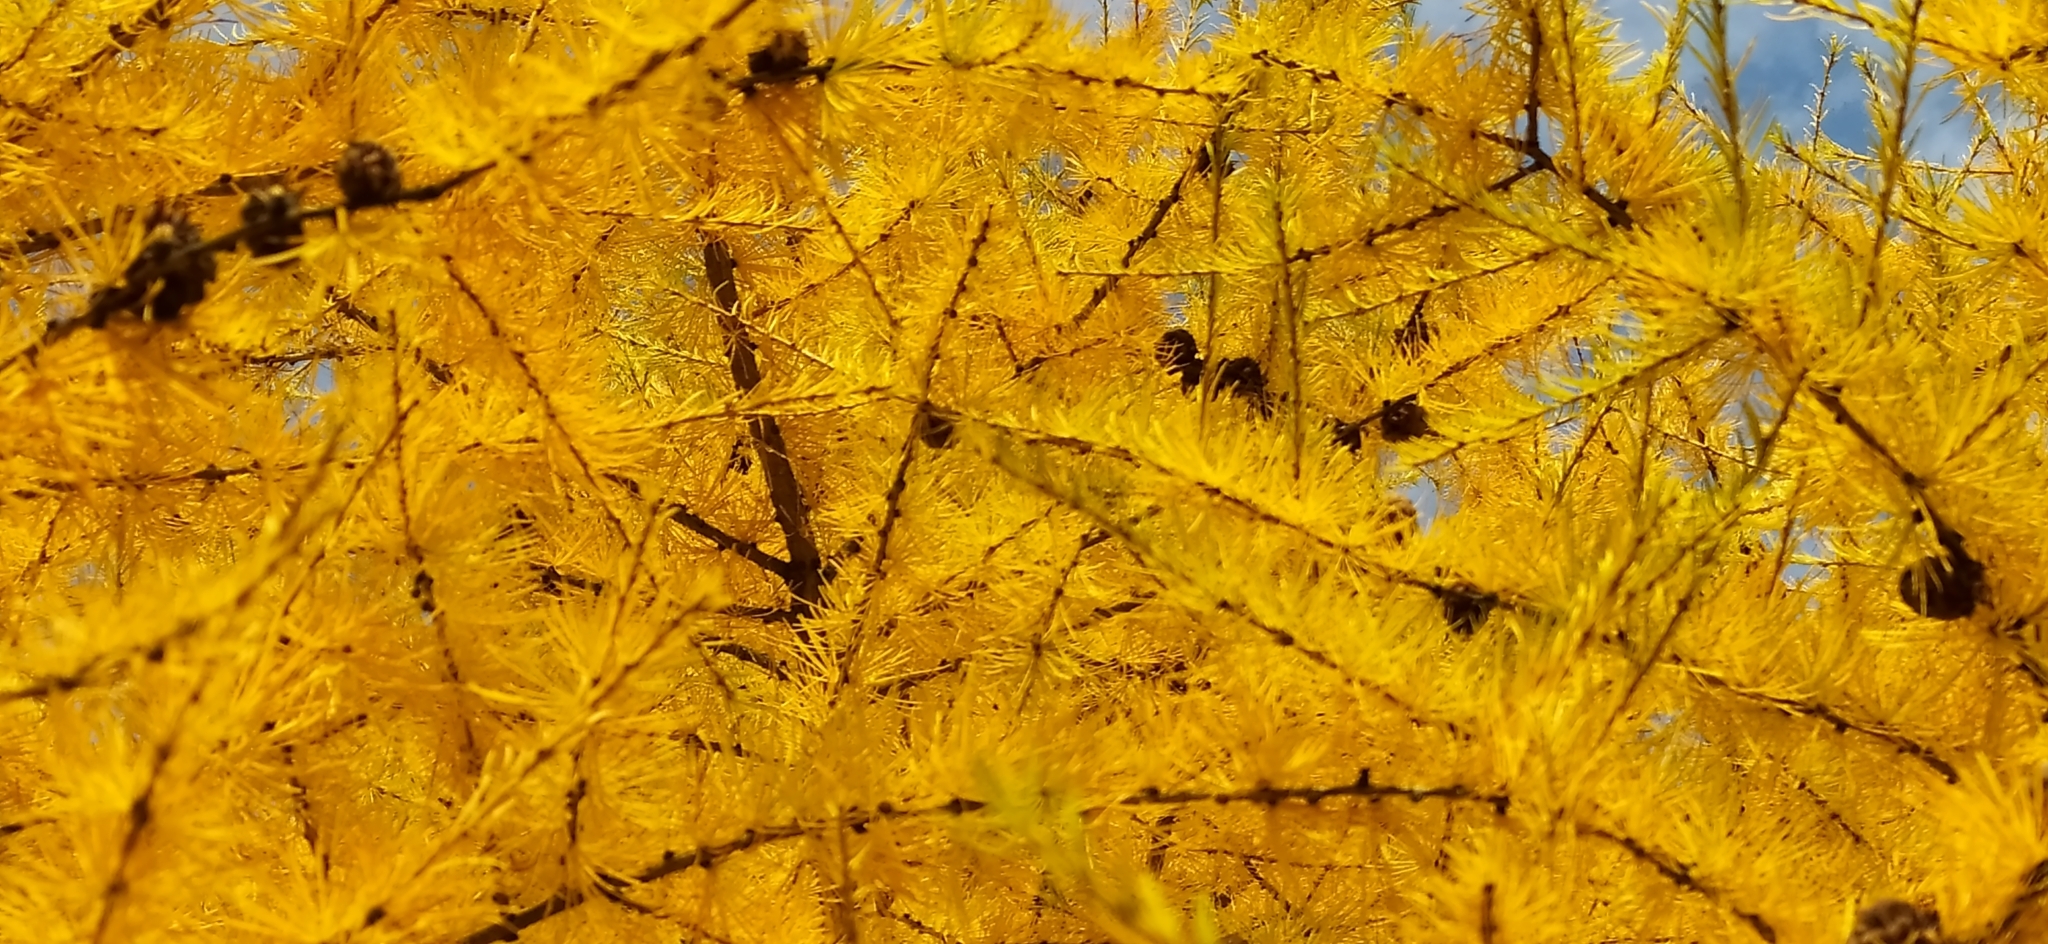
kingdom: Plantae
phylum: Tracheophyta
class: Pinopsida
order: Pinales
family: Pinaceae
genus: Larix
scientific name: Larix sibirica
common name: Siberian larch
